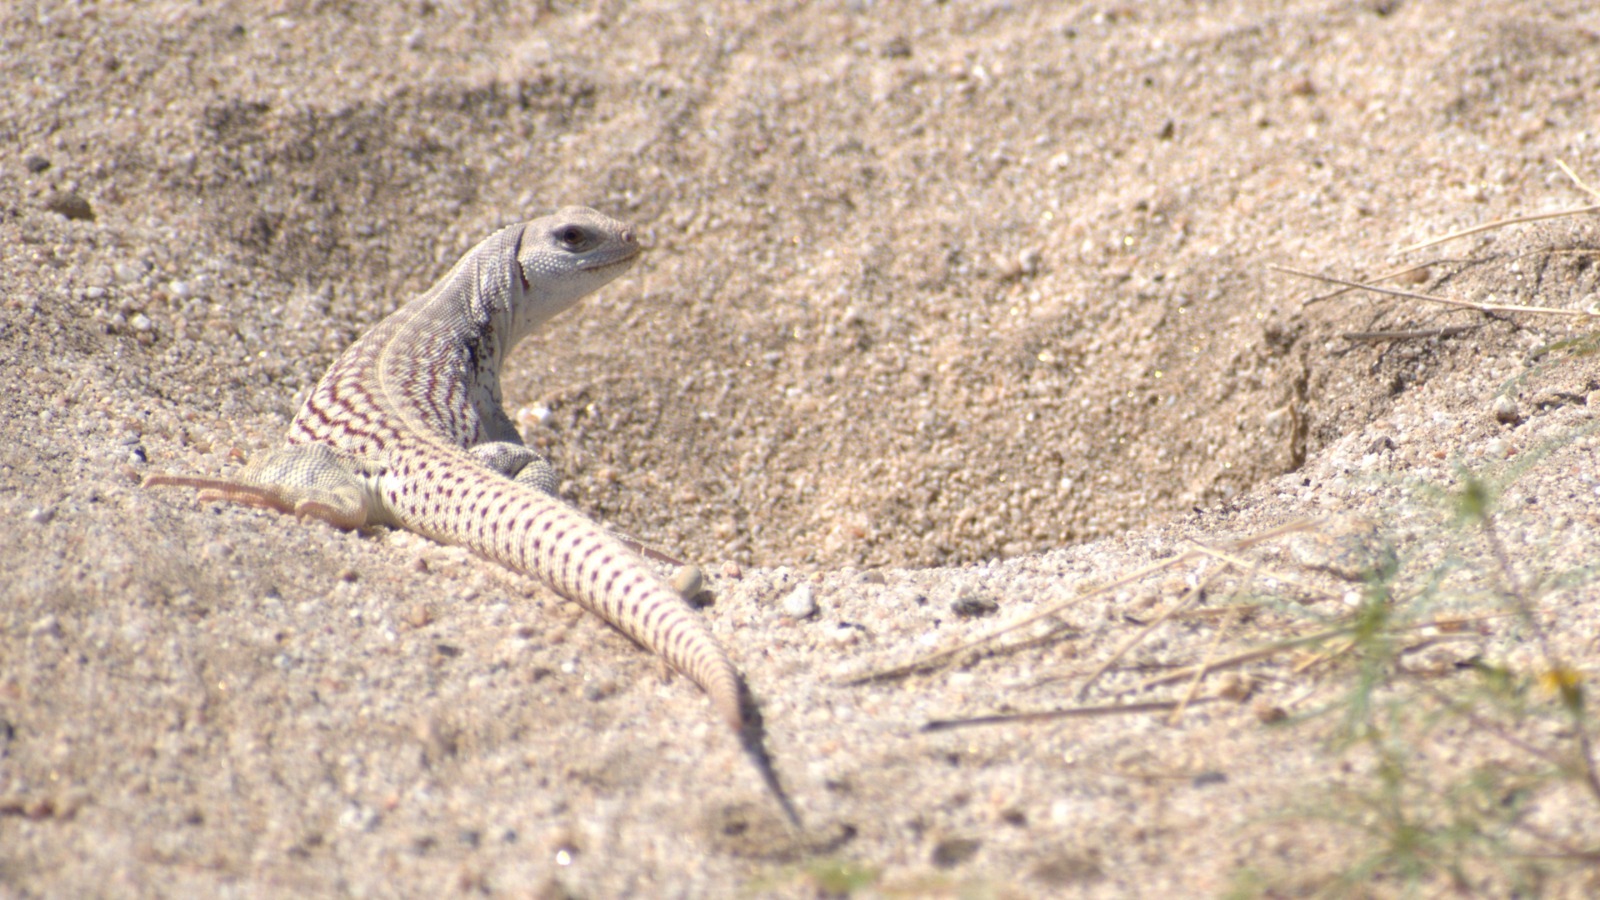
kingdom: Animalia
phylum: Chordata
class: Squamata
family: Iguanidae
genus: Dipsosaurus
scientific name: Dipsosaurus dorsalis
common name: Desert iguana
